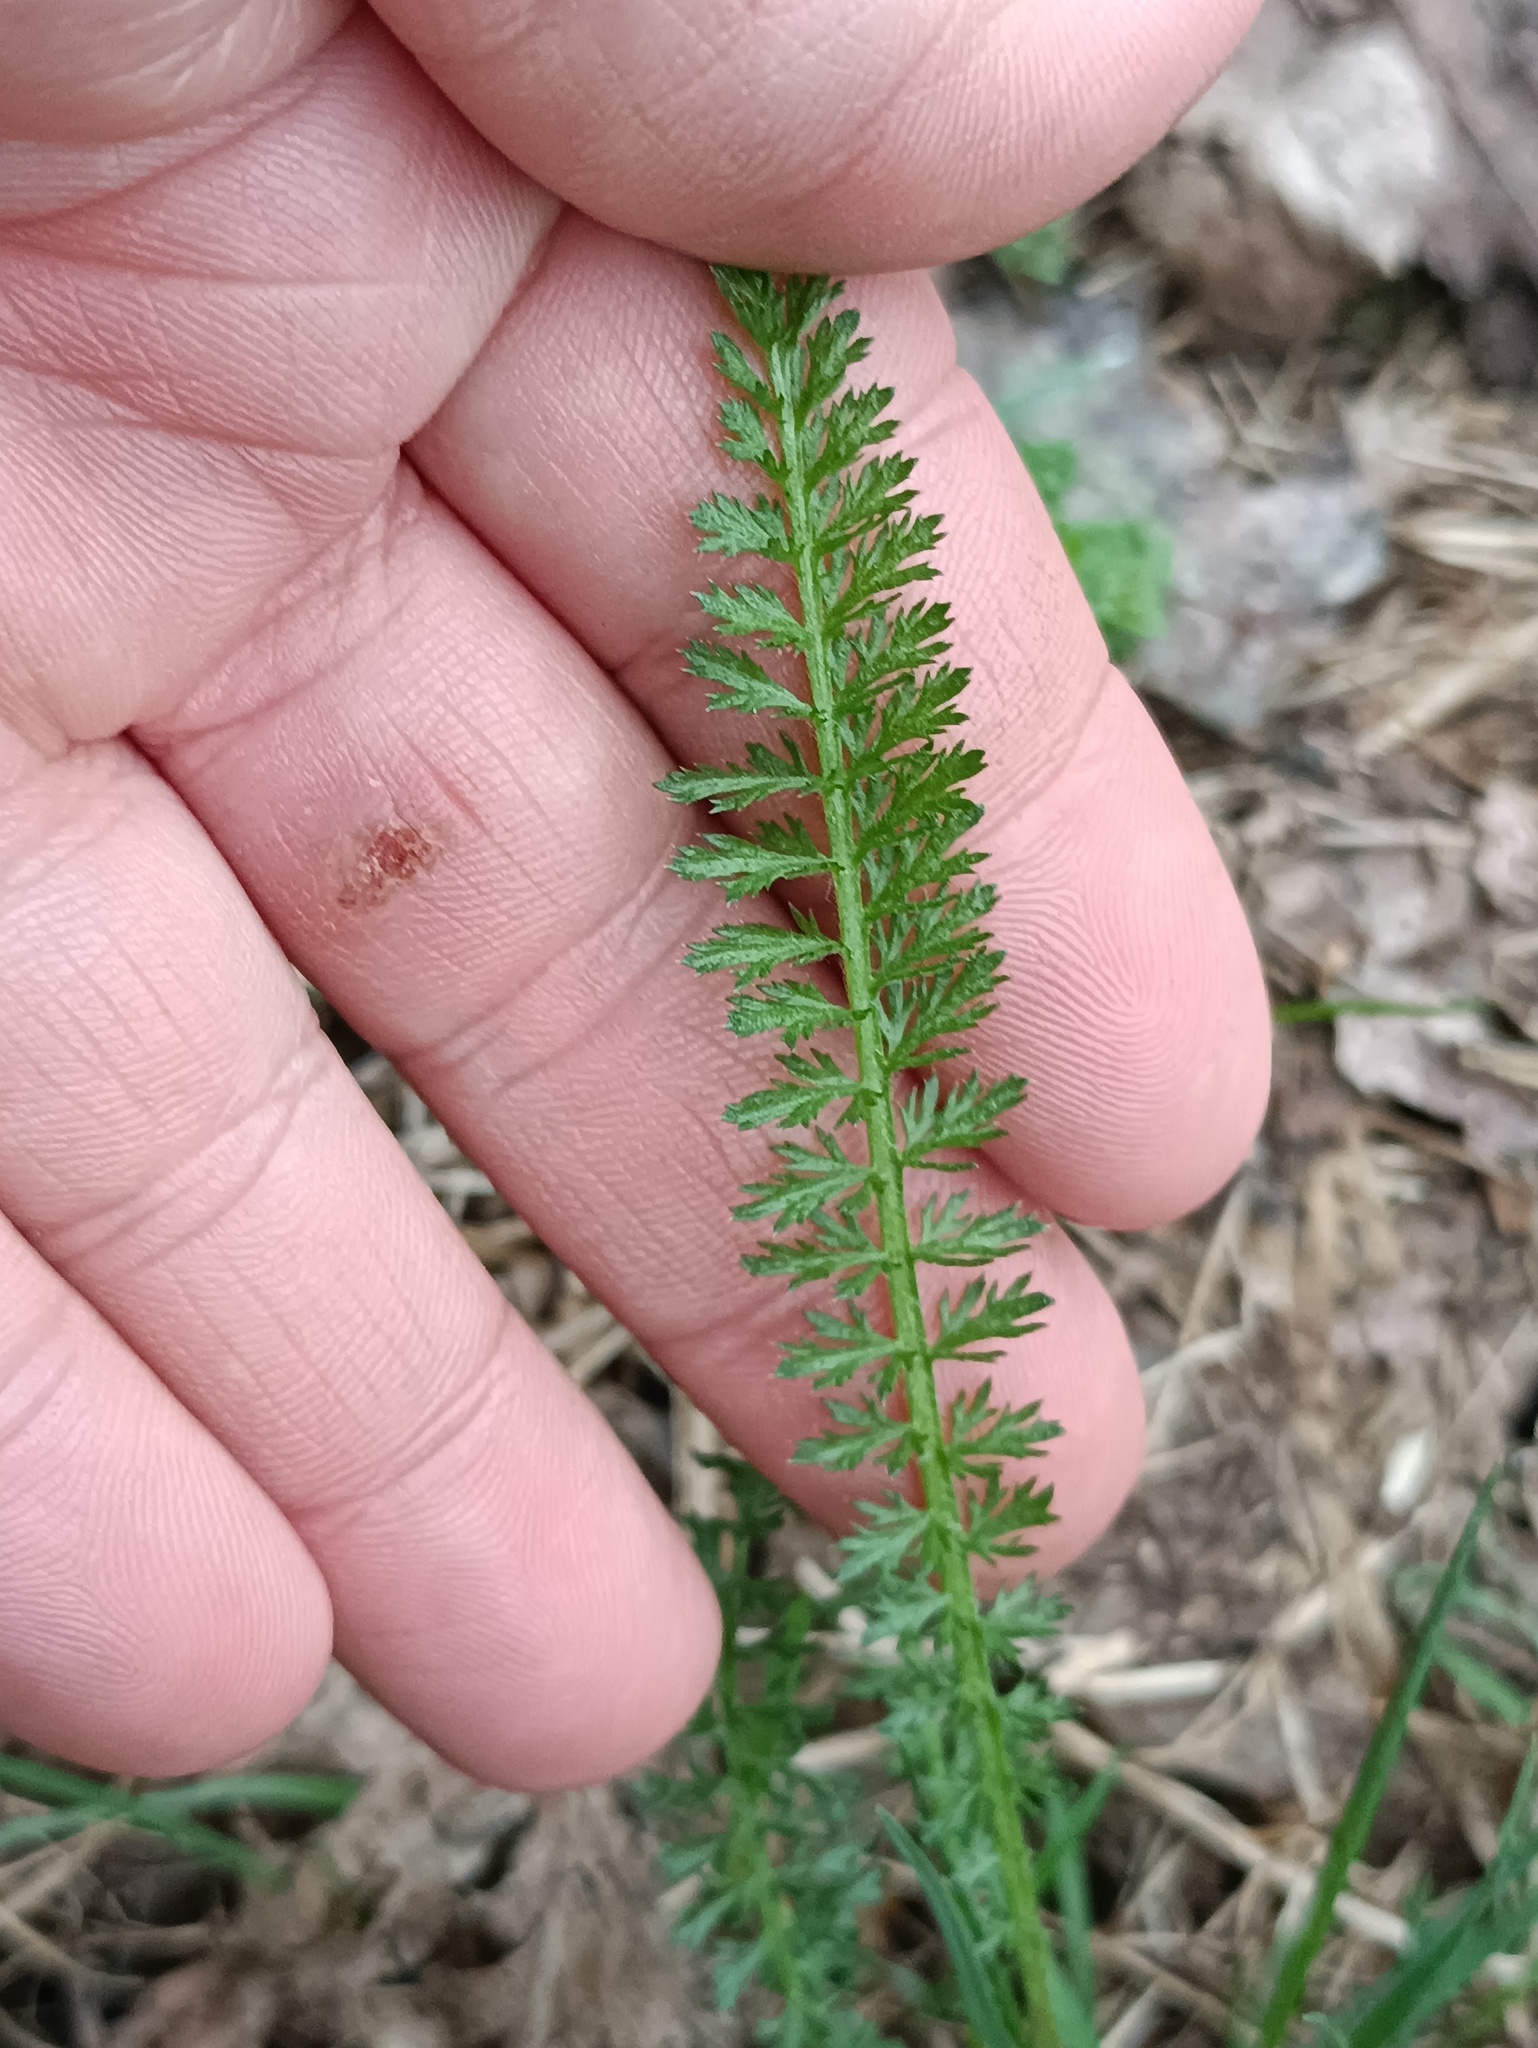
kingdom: Plantae
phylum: Tracheophyta
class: Magnoliopsida
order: Asterales
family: Asteraceae
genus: Achillea
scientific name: Achillea millefolium
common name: Yarrow
